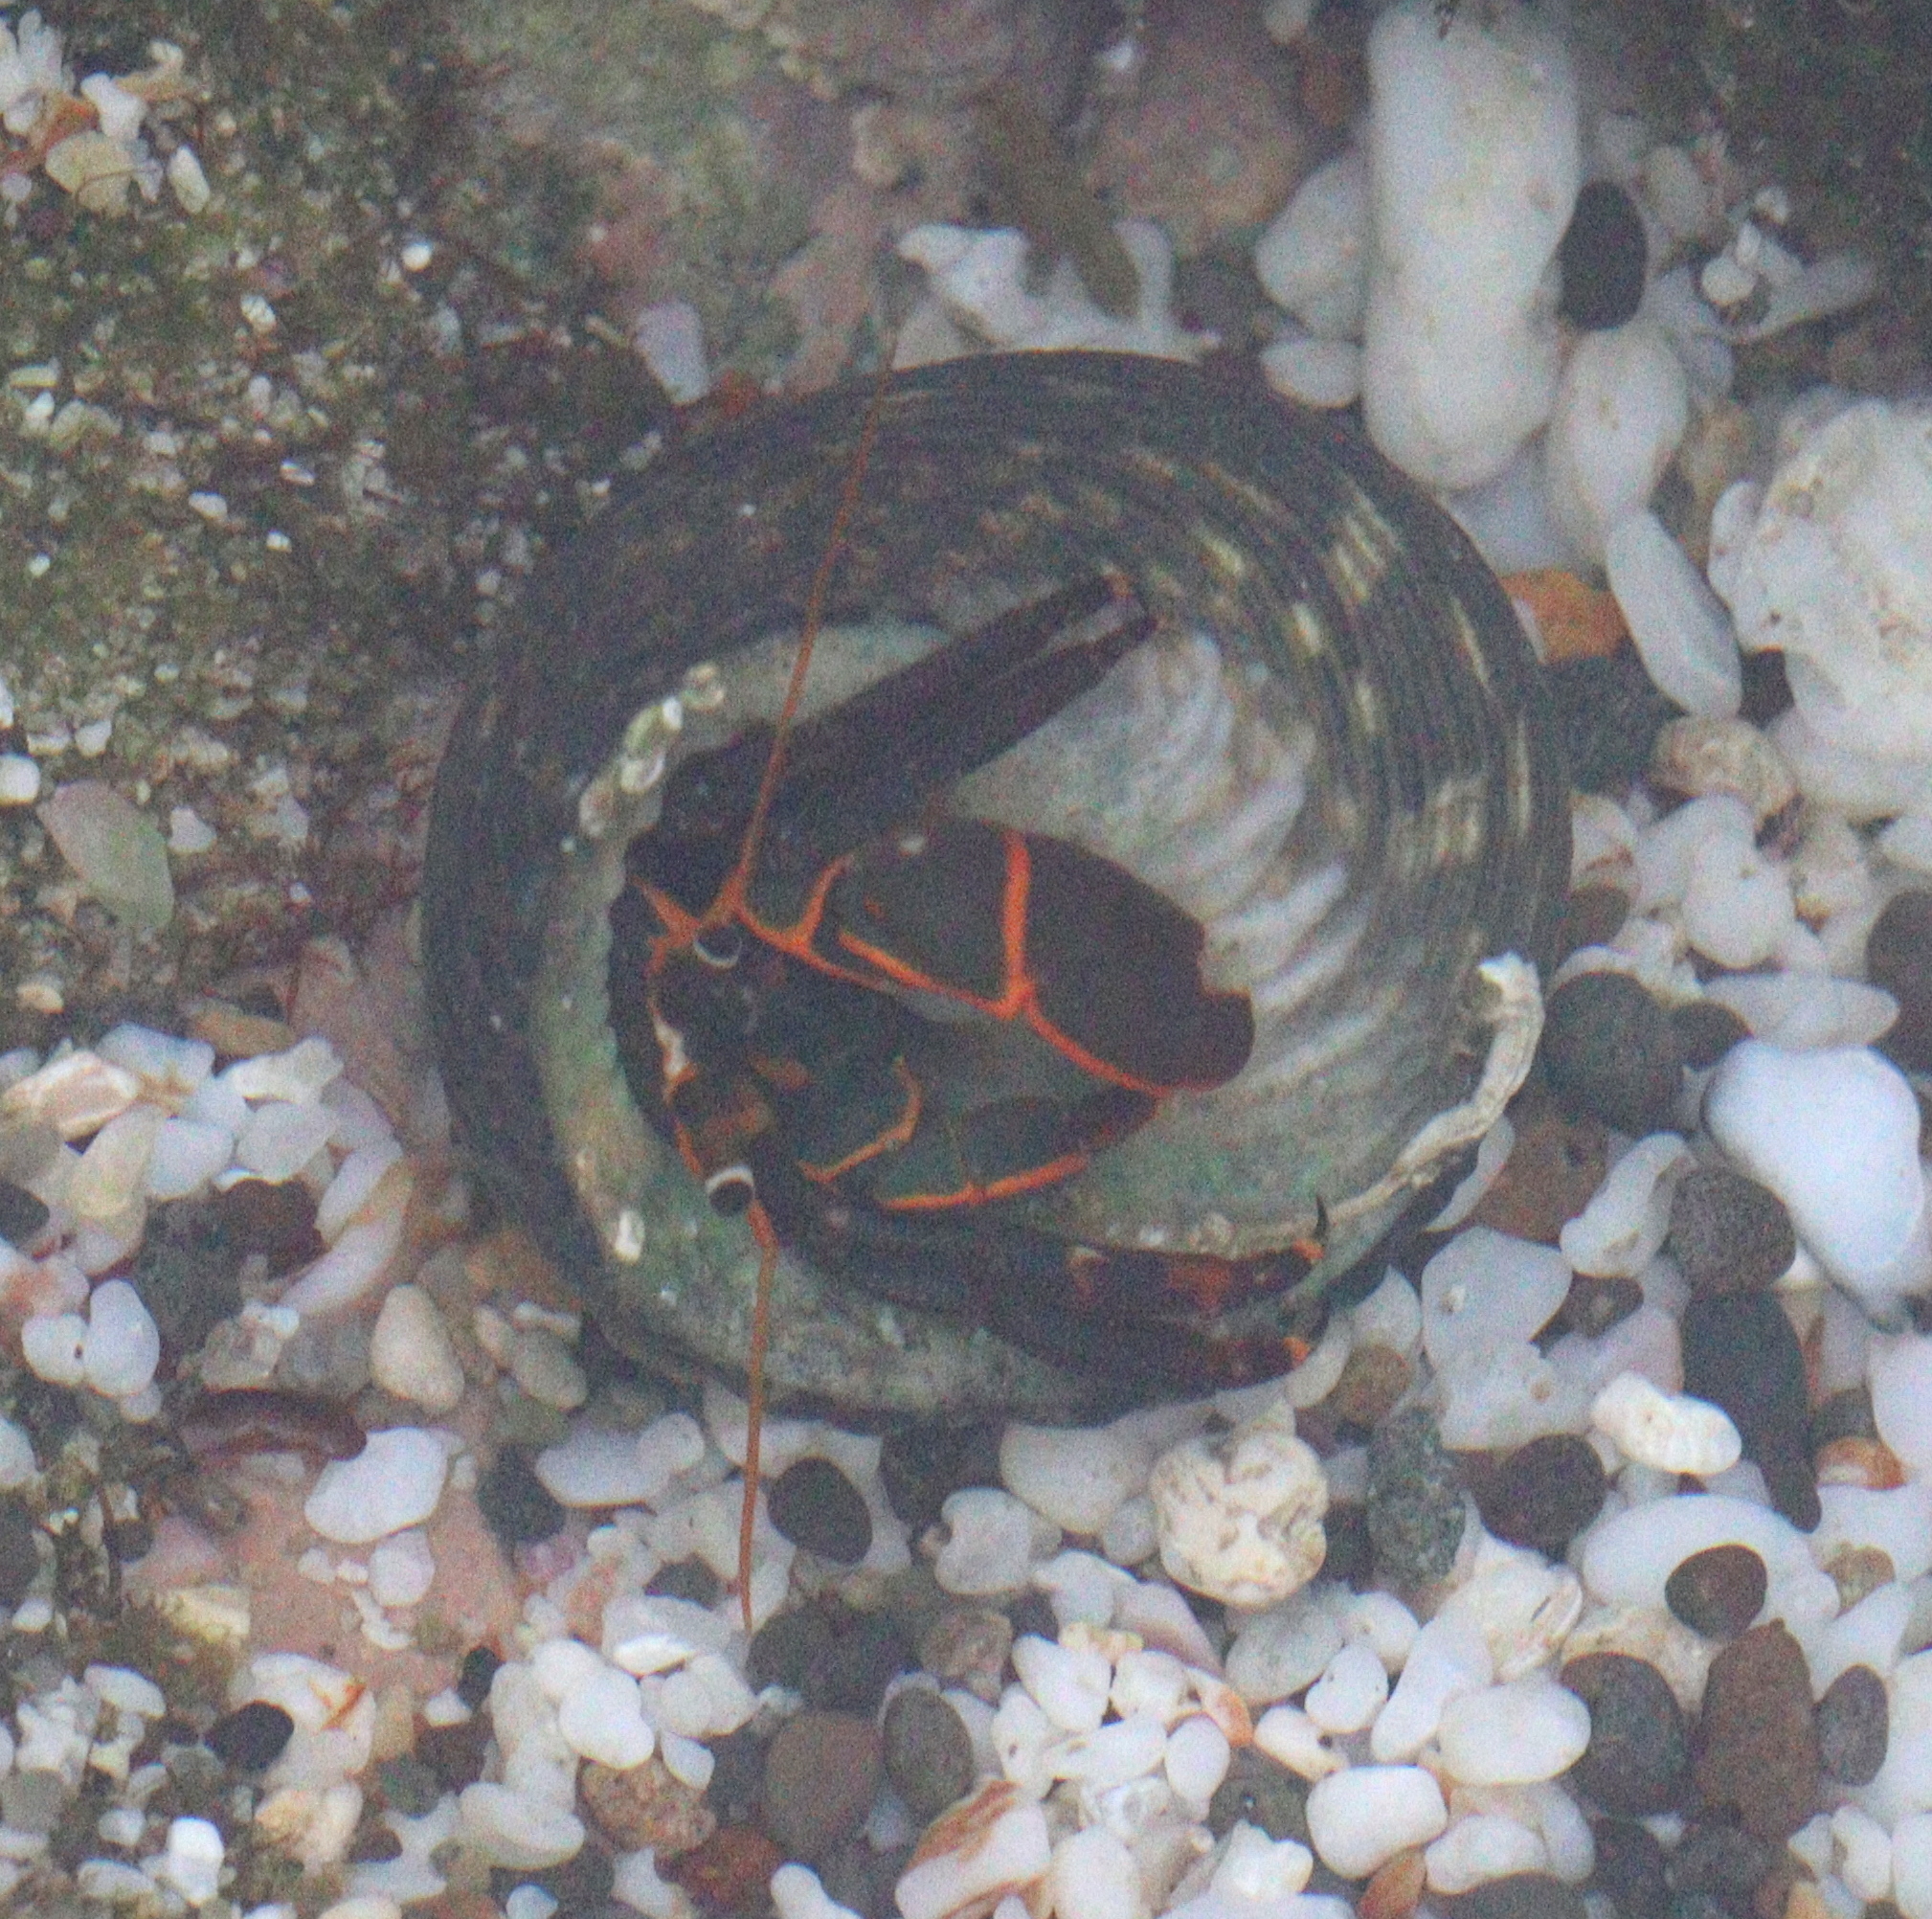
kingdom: Animalia
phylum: Arthropoda
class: Malacostraca
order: Decapoda
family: Diogenidae
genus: Calcinus
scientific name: Calcinus obscurus
